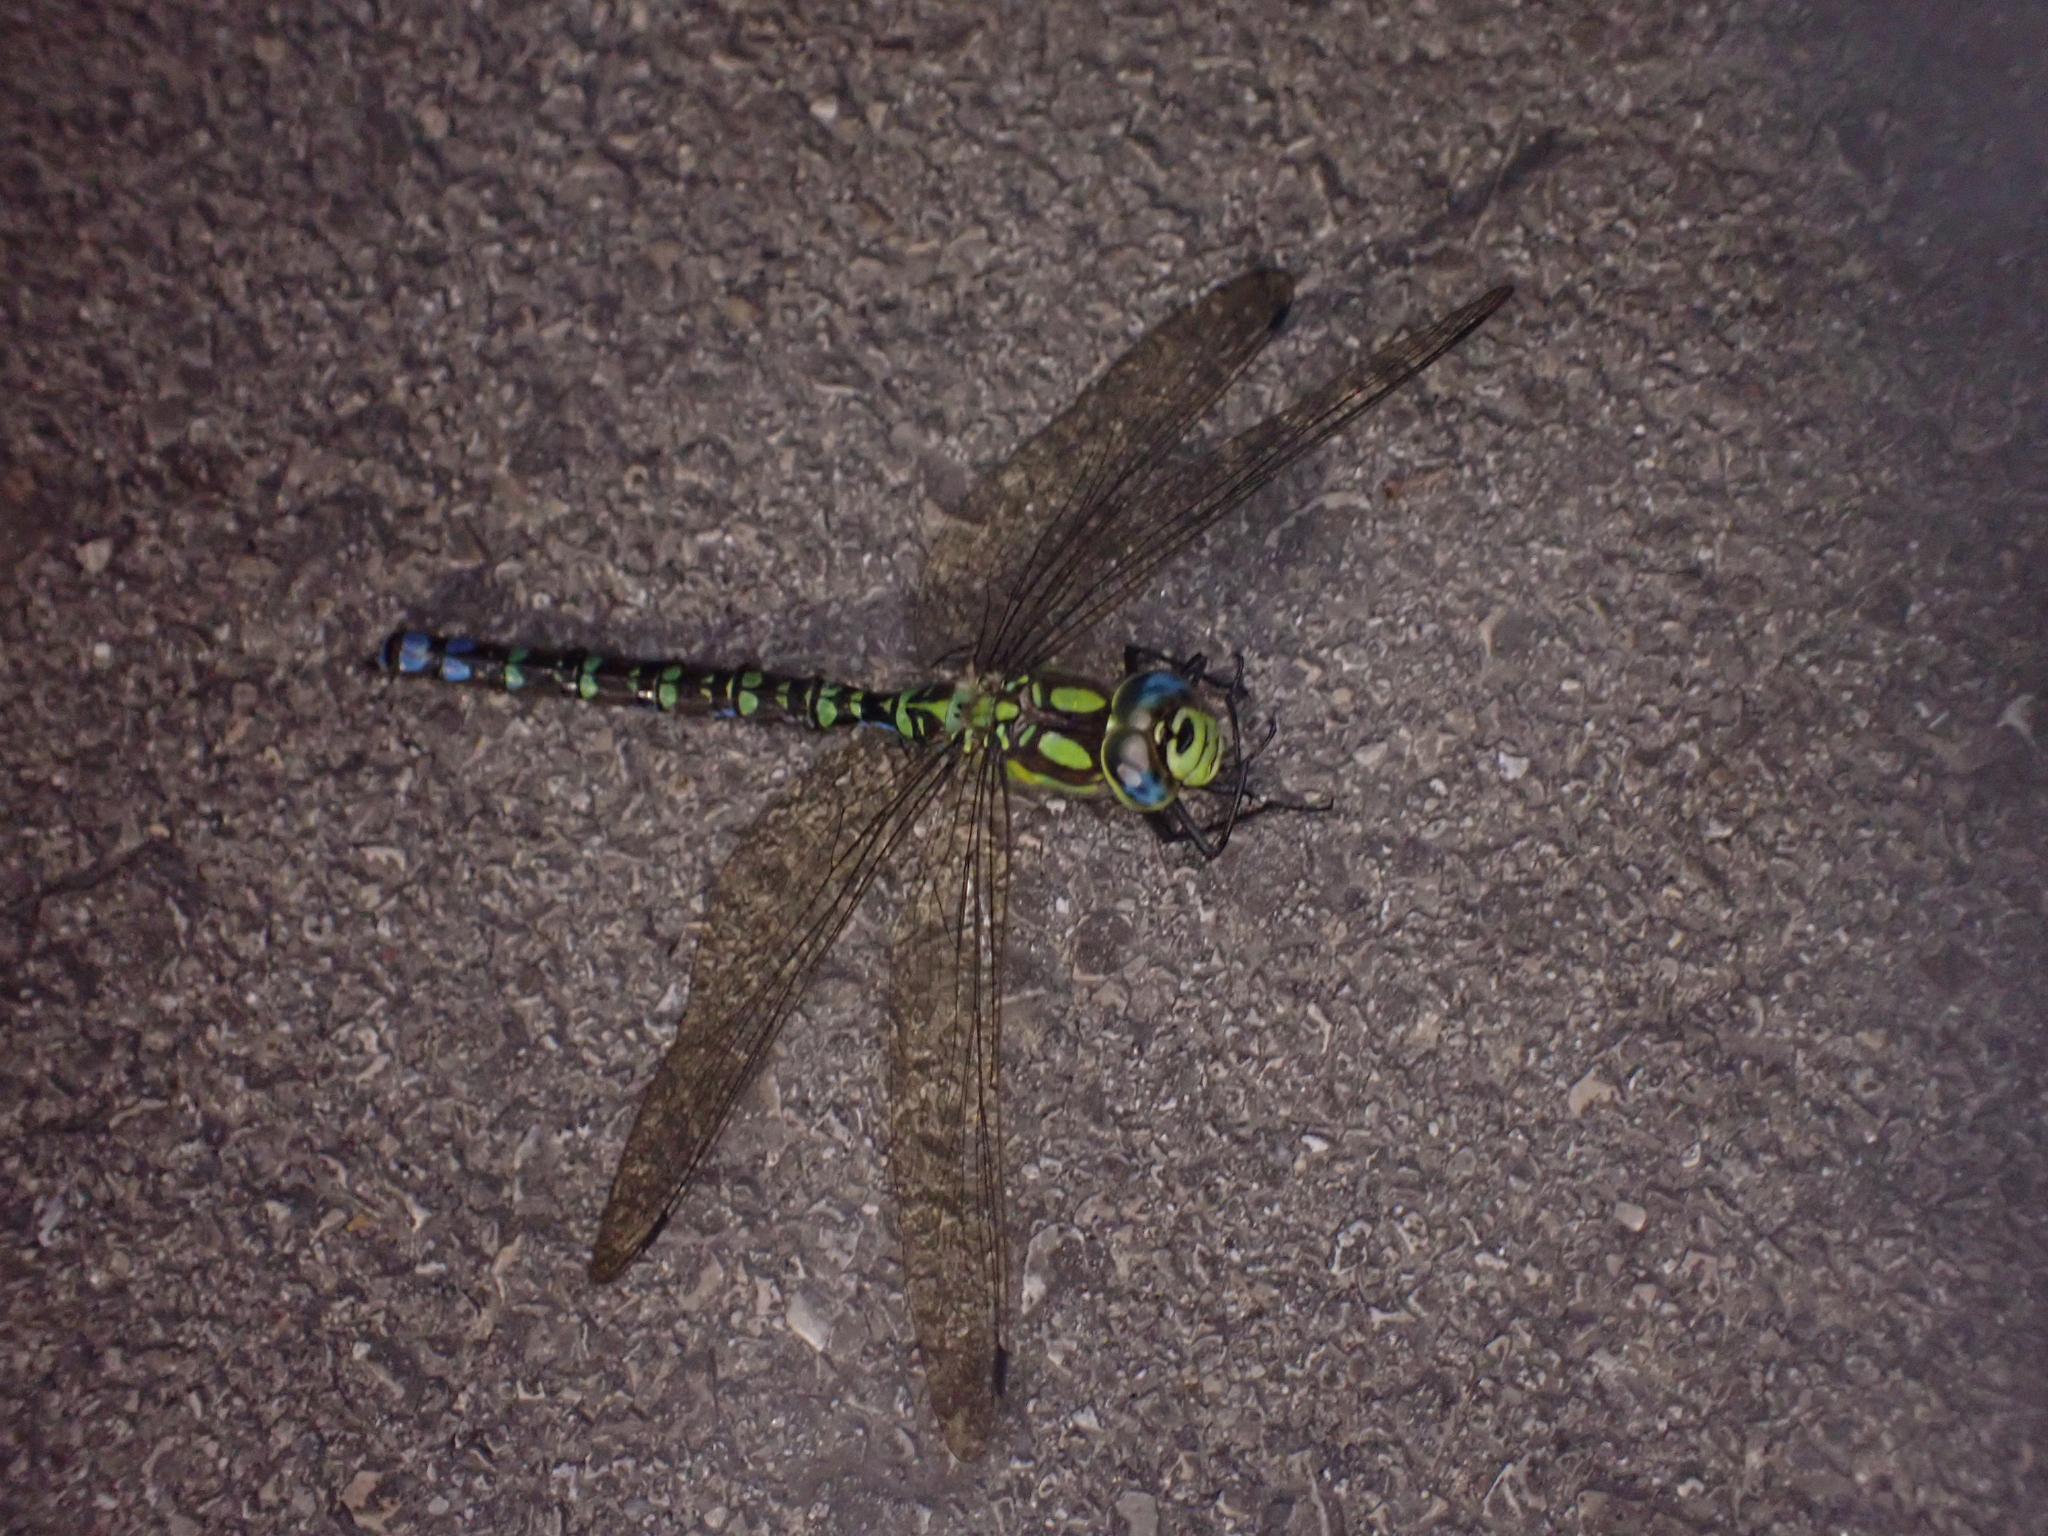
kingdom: Animalia
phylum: Arthropoda
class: Insecta
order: Odonata
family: Aeshnidae
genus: Aeshna
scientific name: Aeshna cyanea
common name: Southern hawker
